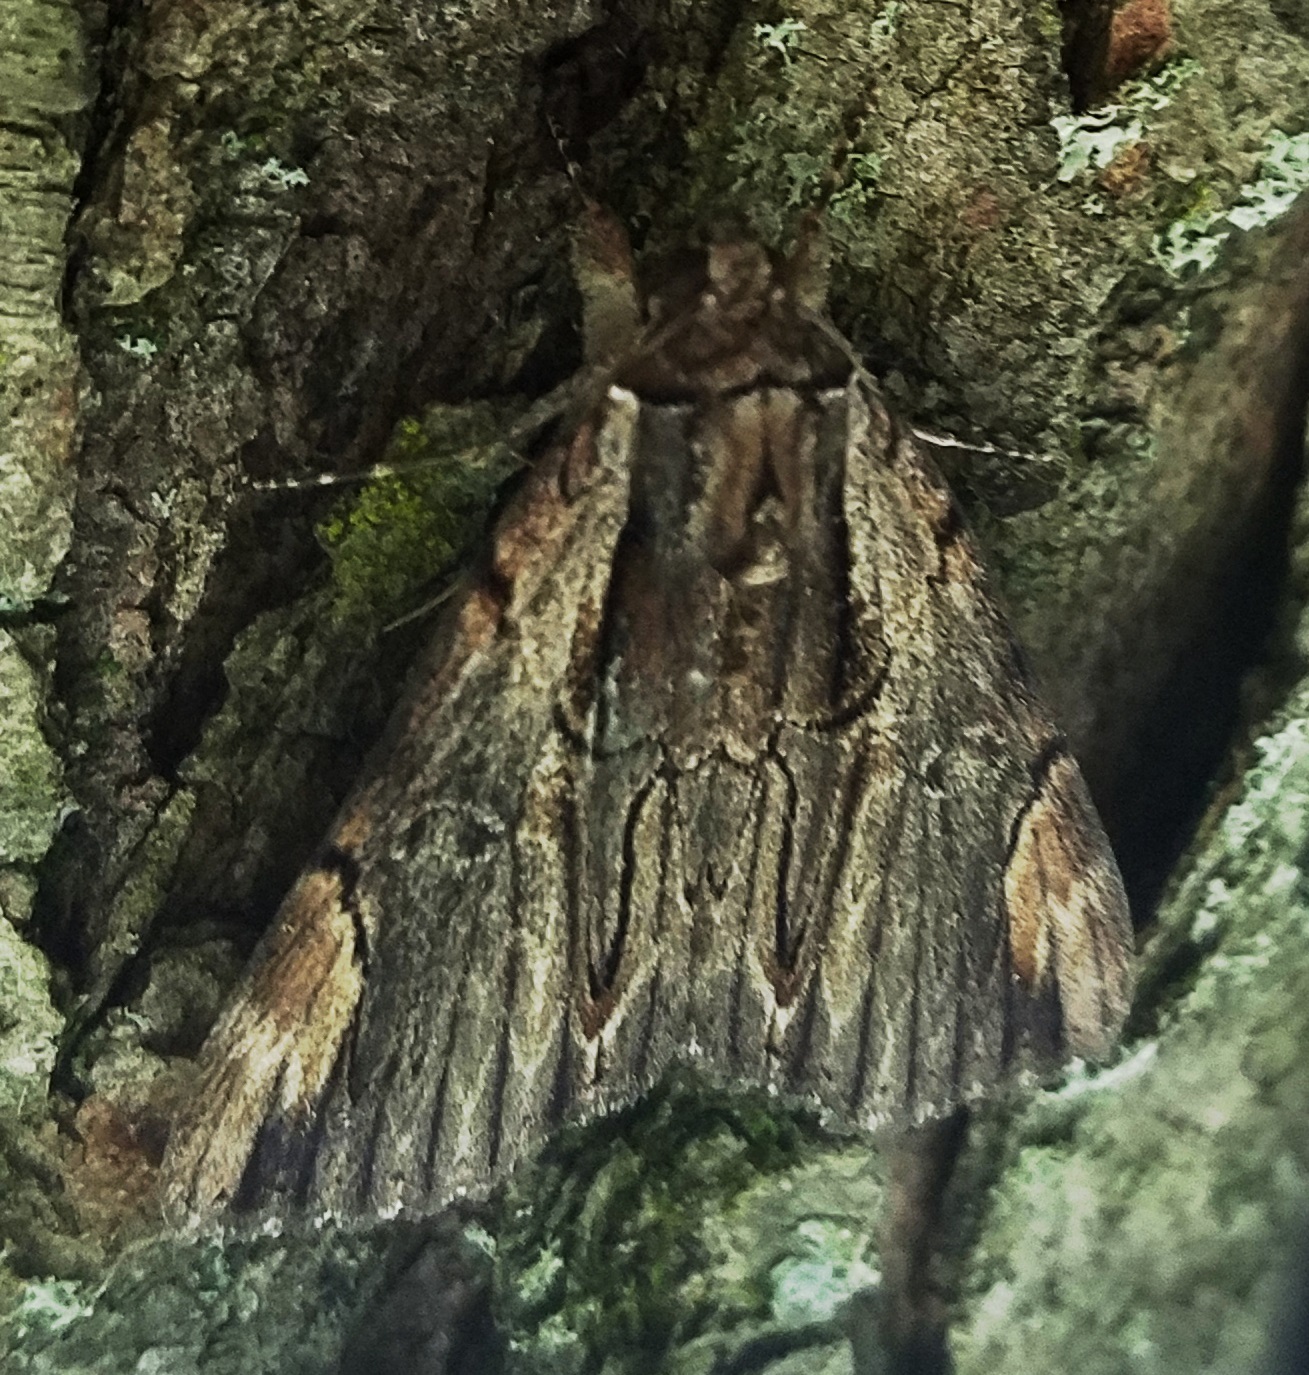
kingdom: Animalia
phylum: Arthropoda
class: Insecta
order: Lepidoptera
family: Erebidae
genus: Catocala
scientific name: Catocala ultronia
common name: Ultronia underwing
